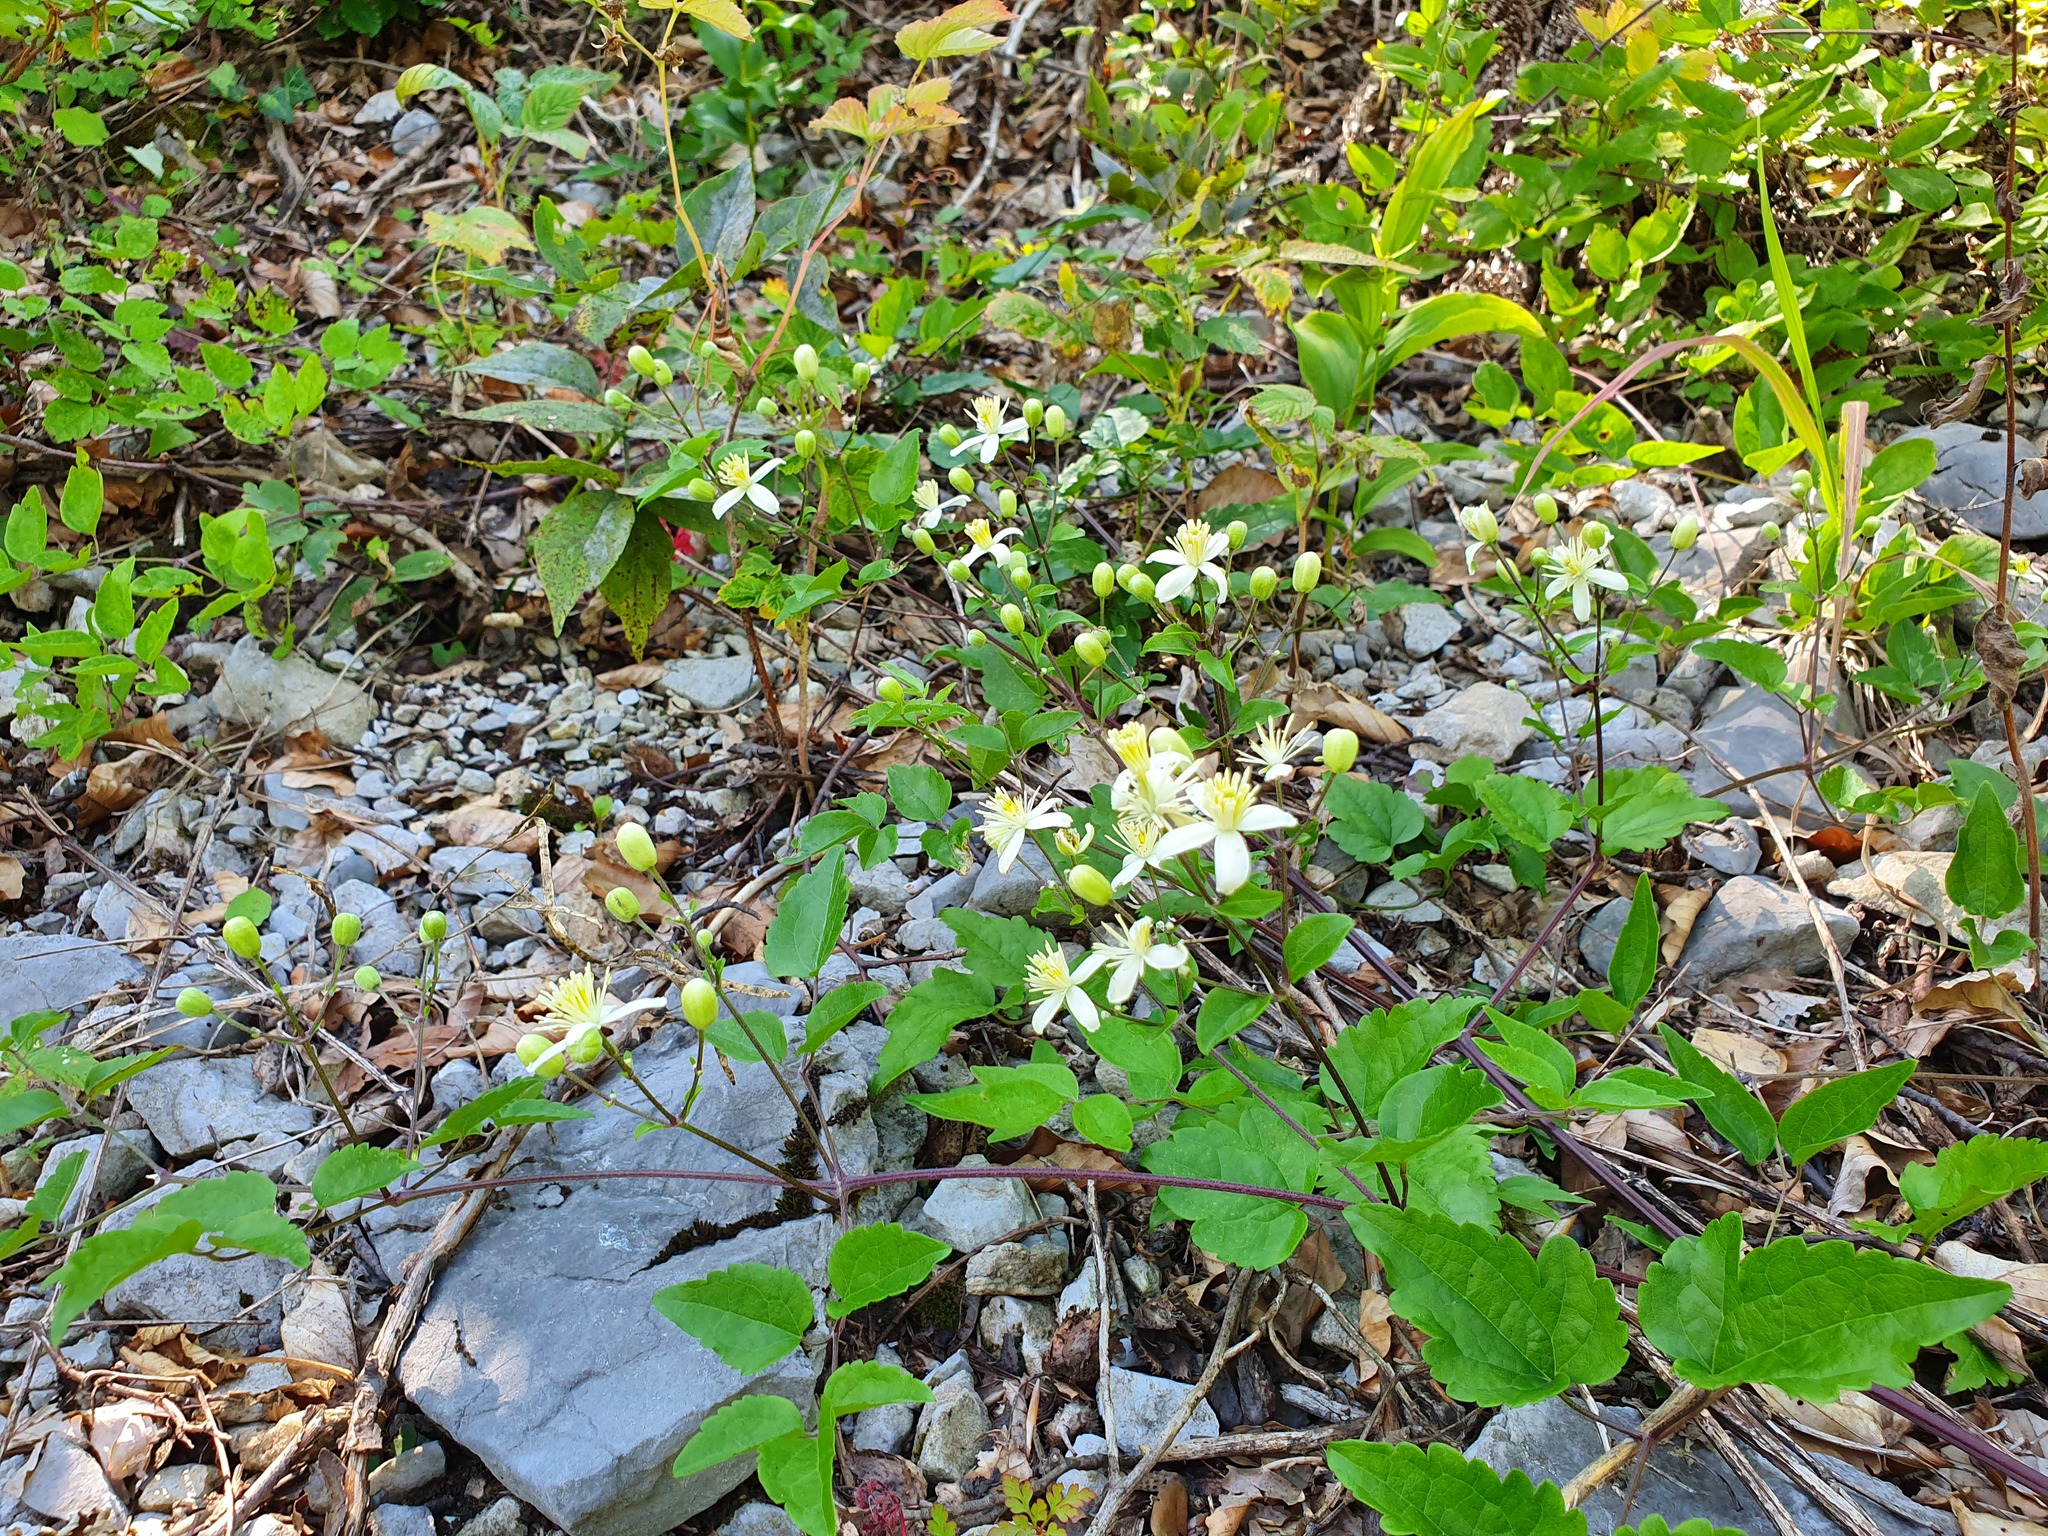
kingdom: Plantae
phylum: Tracheophyta
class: Magnoliopsida
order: Ranunculales
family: Ranunculaceae
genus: Clematis
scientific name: Clematis vitalba
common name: Evergreen clematis
